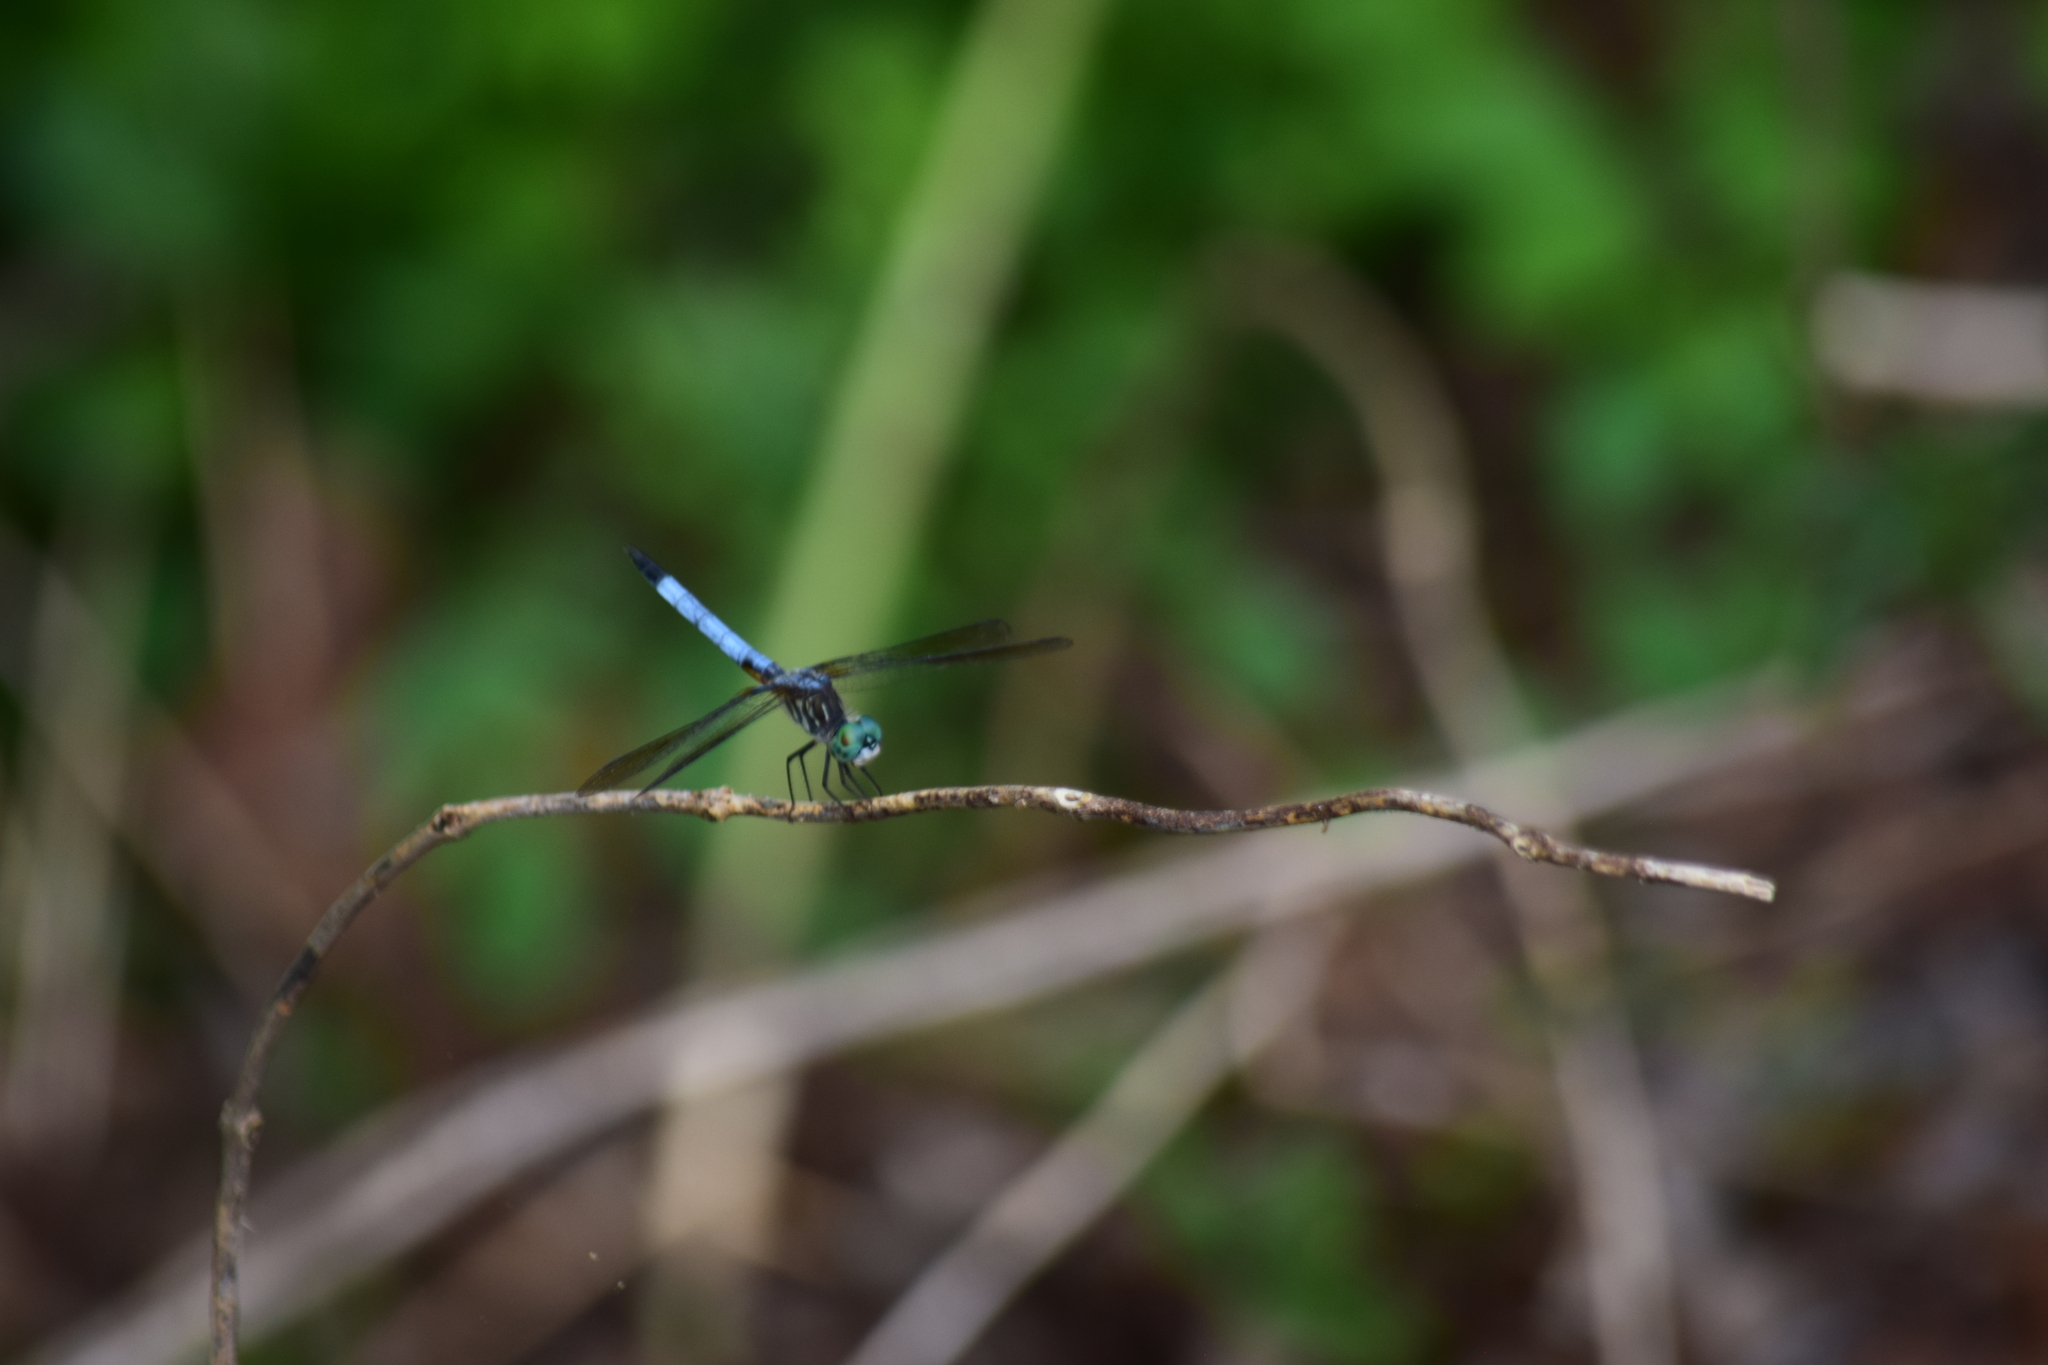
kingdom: Animalia
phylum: Arthropoda
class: Insecta
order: Odonata
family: Libellulidae
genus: Pachydiplax
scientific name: Pachydiplax longipennis
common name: Blue dasher
